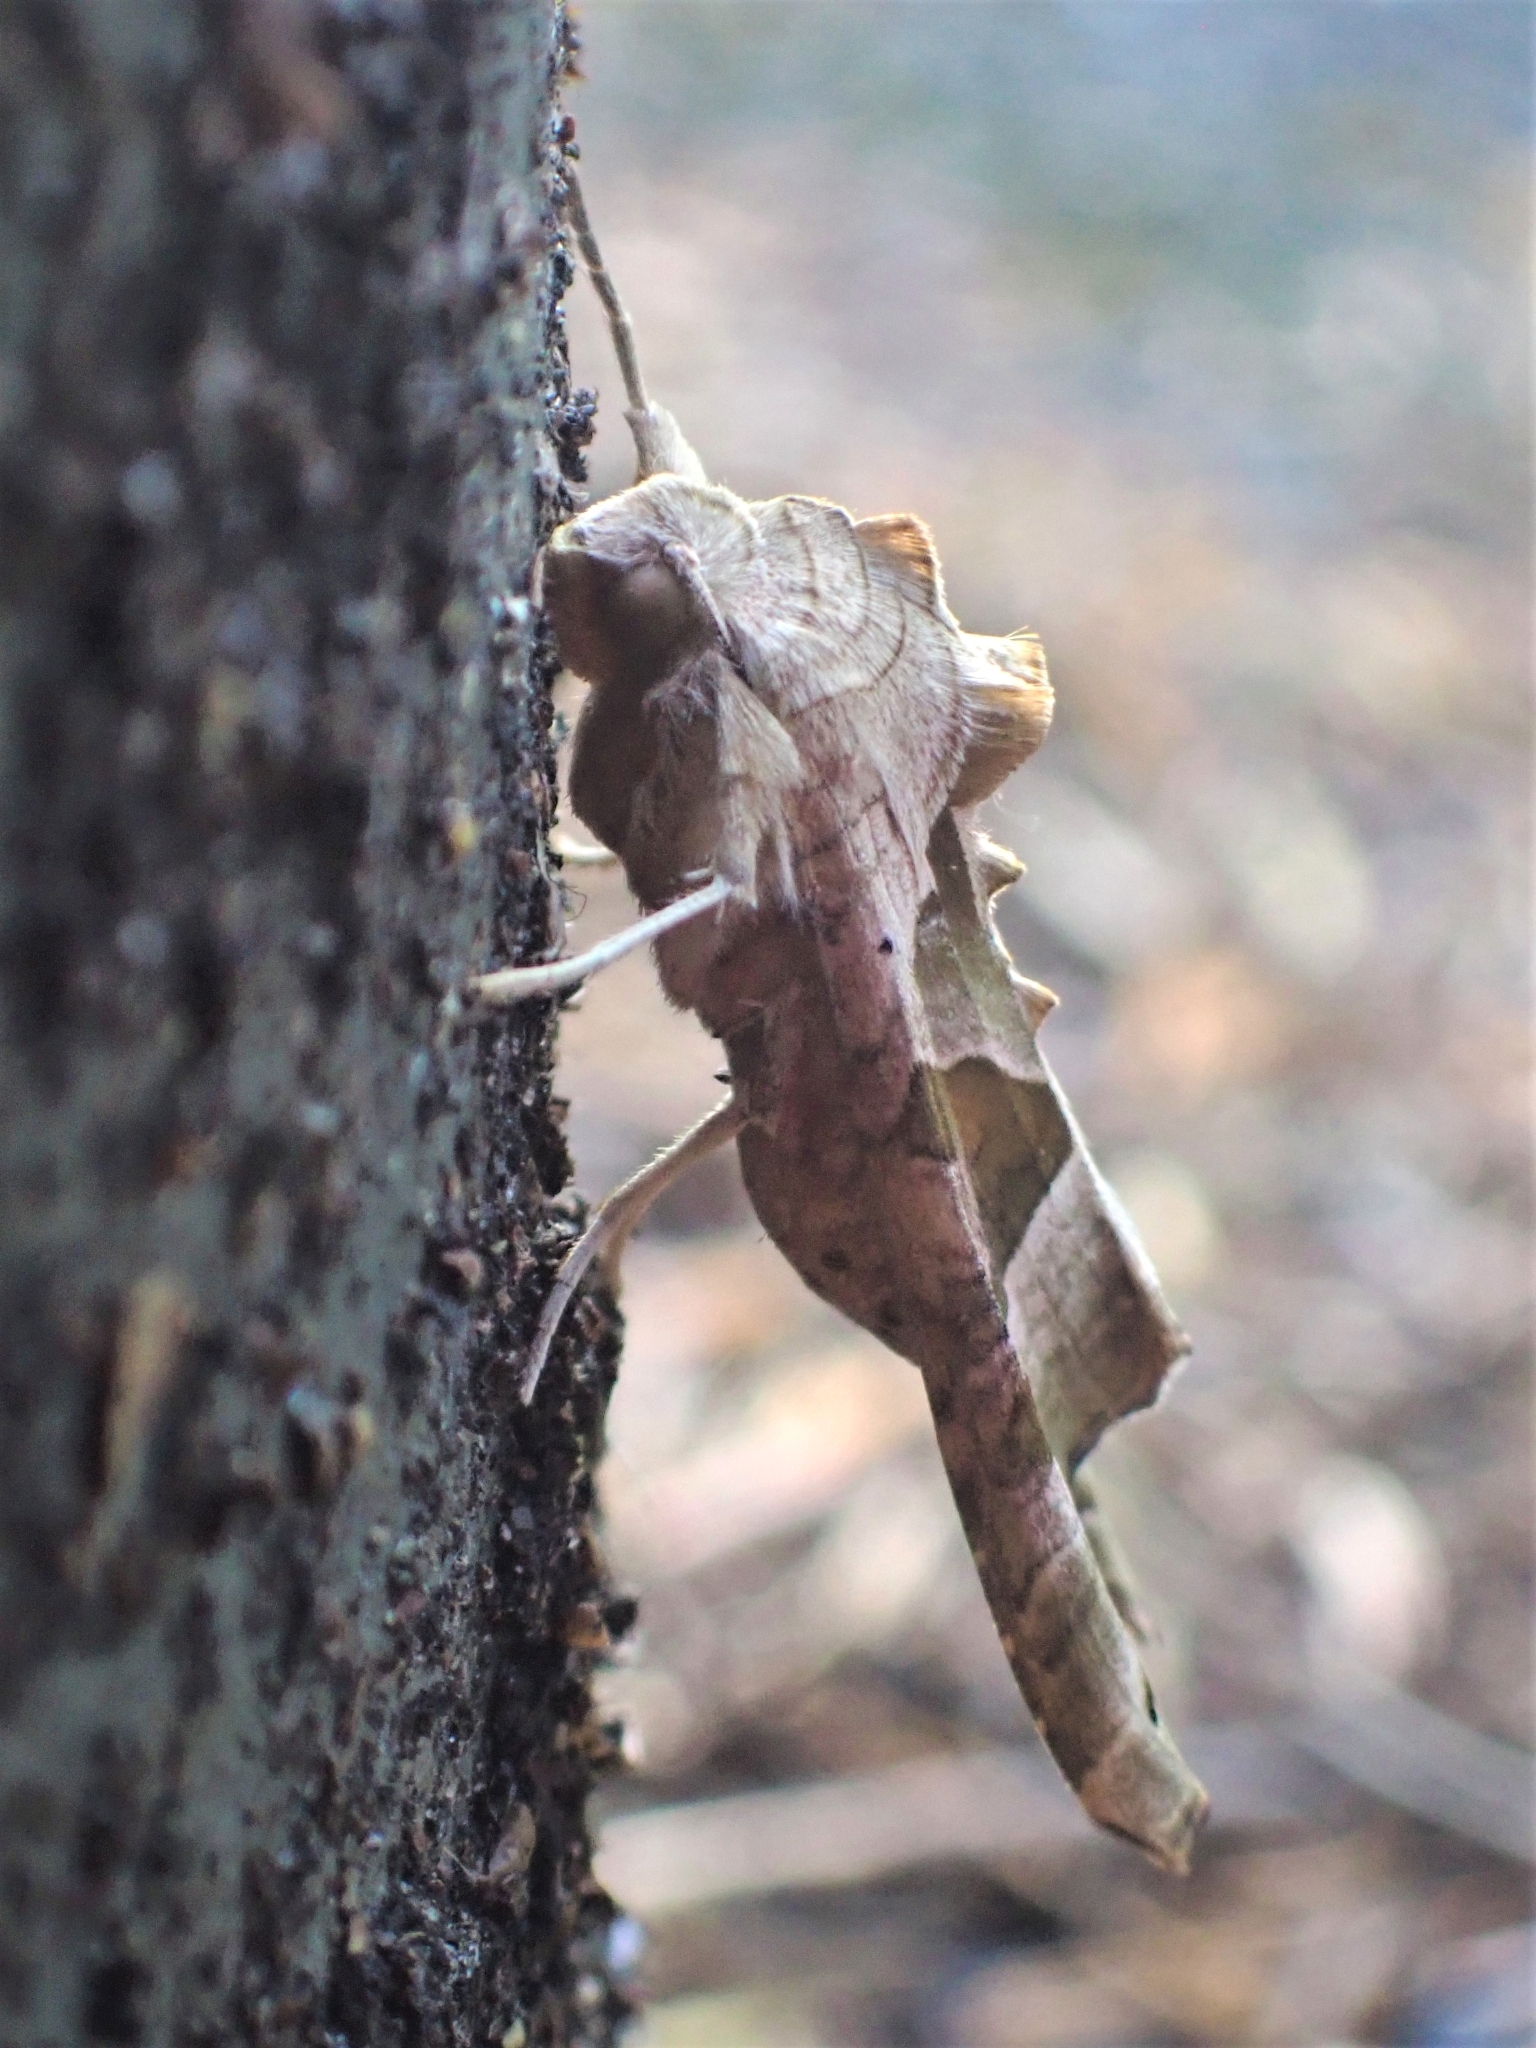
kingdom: Animalia
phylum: Arthropoda
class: Insecta
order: Lepidoptera
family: Noctuidae
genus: Phlogophora
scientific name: Phlogophora meticulosa
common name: Angle shades
